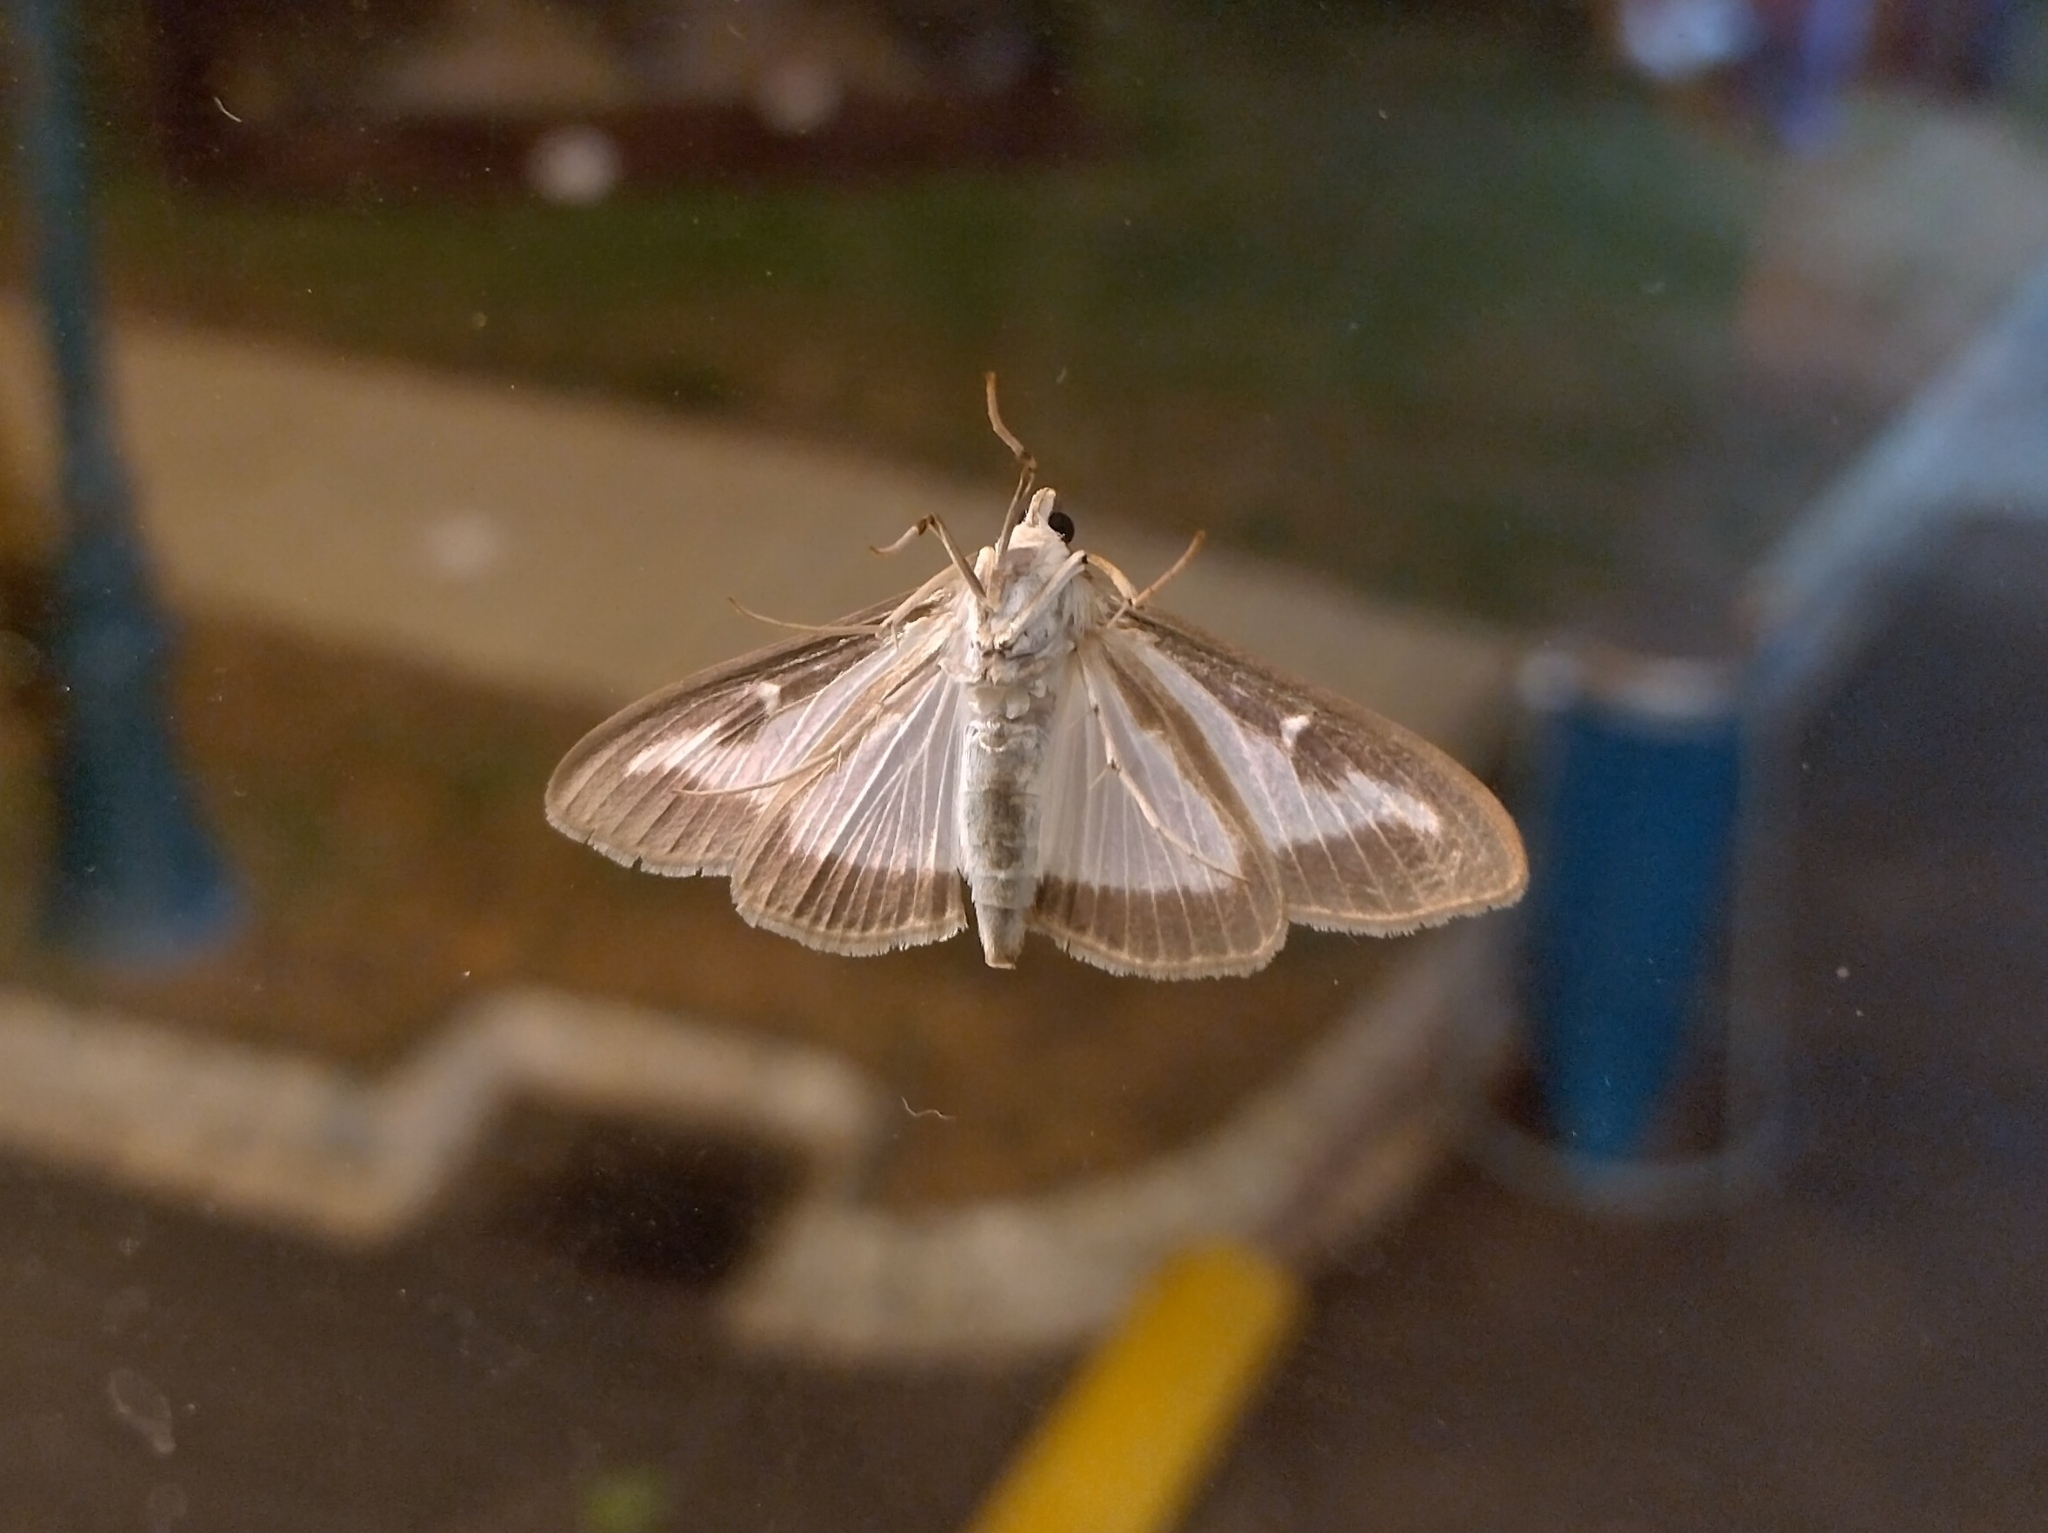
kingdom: Animalia
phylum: Arthropoda
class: Insecta
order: Lepidoptera
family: Crambidae
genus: Cydalima
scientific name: Cydalima perspectalis
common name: Box tree moth
